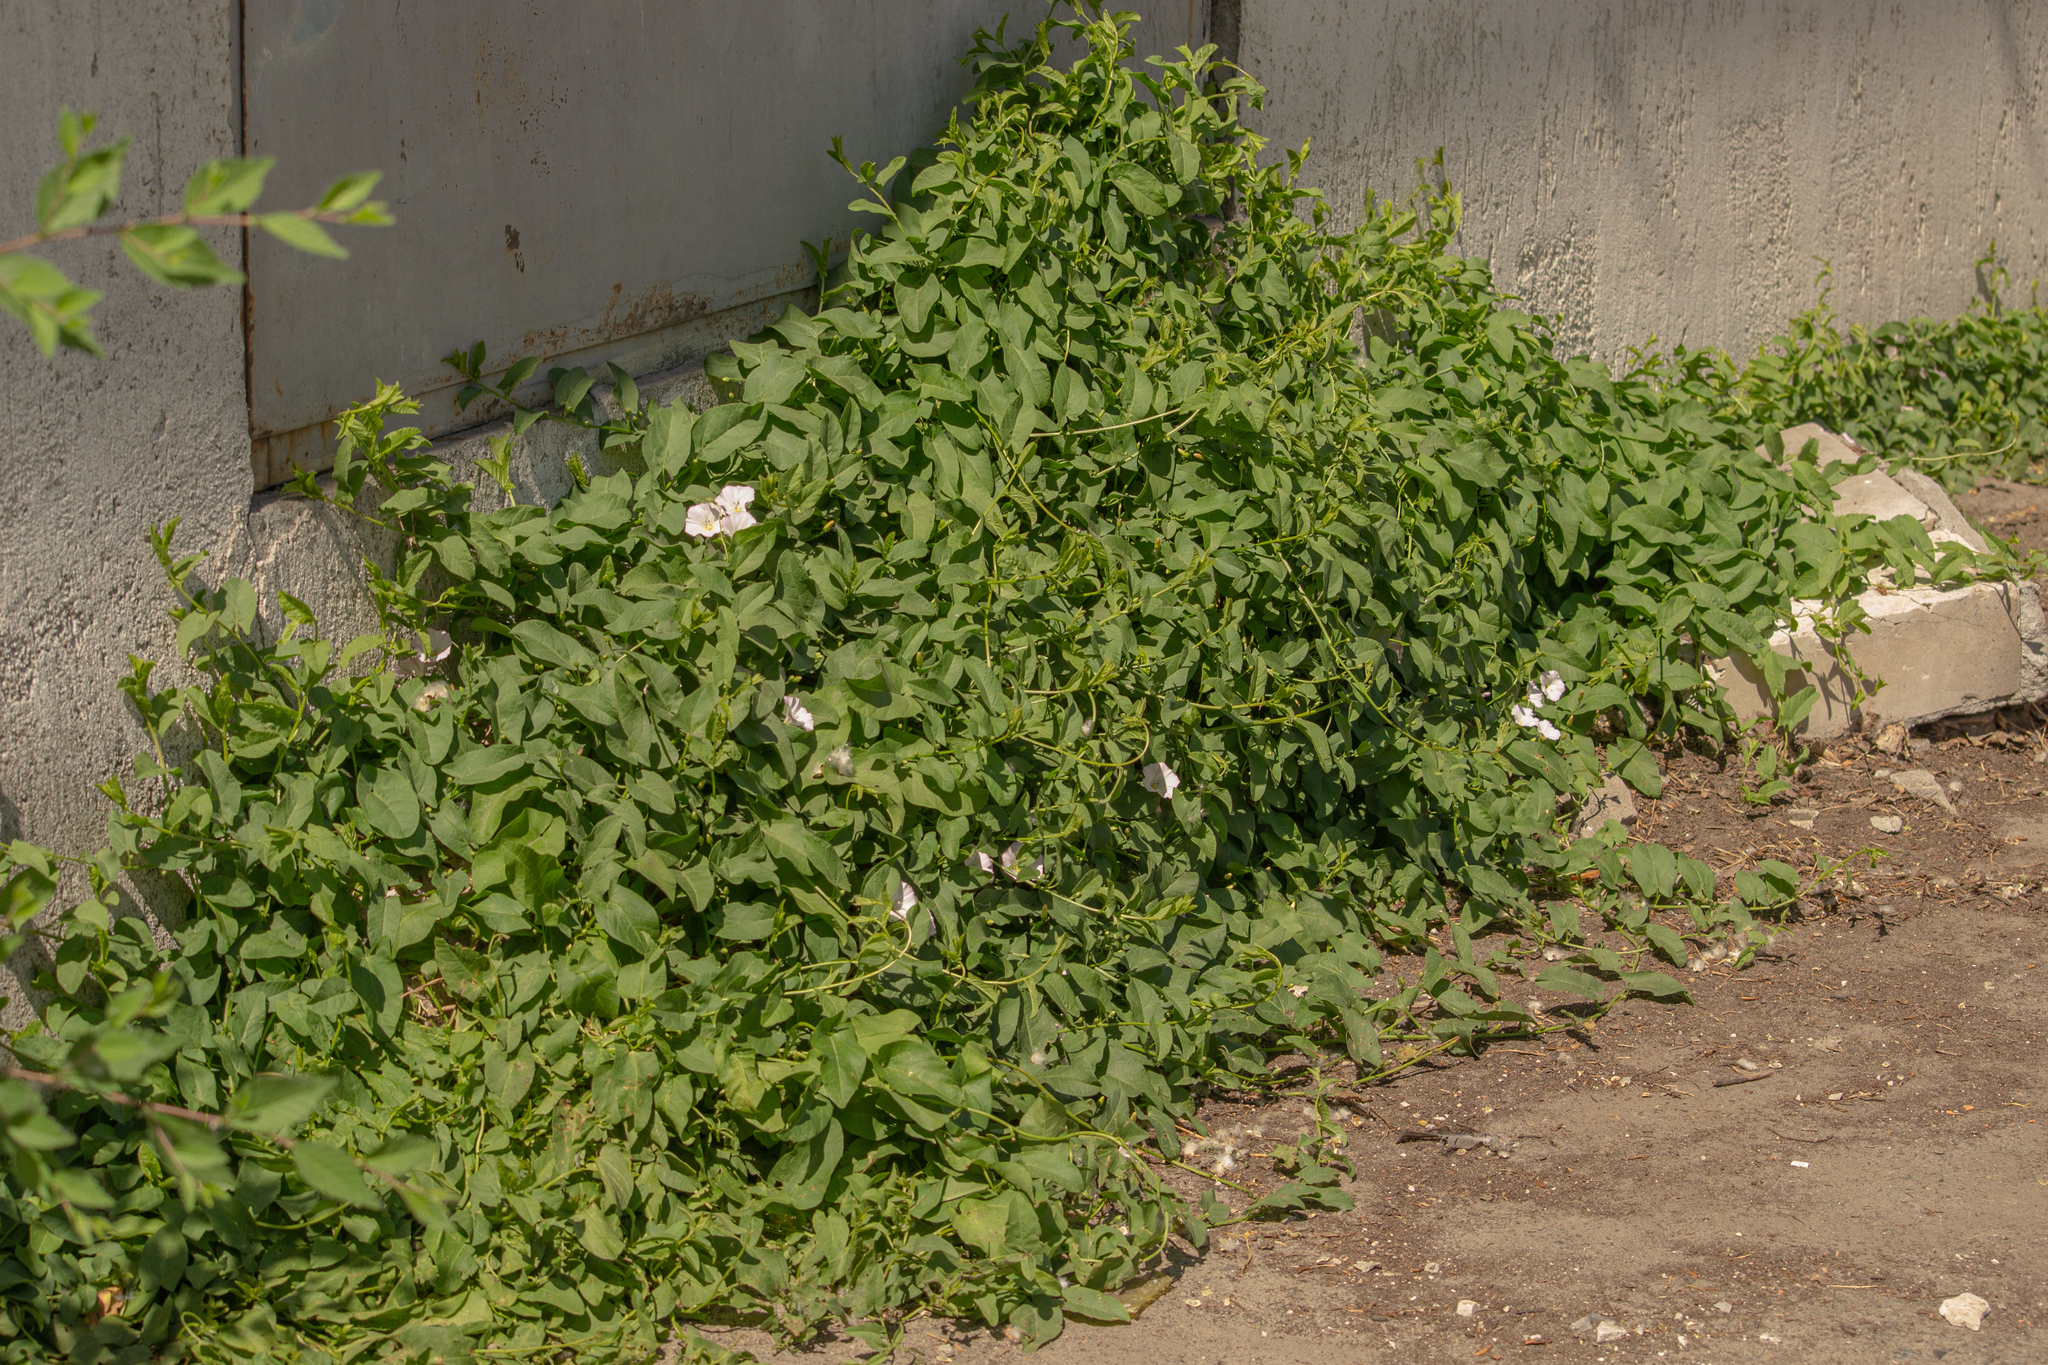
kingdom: Plantae
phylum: Tracheophyta
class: Magnoliopsida
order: Solanales
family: Convolvulaceae
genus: Convolvulus
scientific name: Convolvulus arvensis
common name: Field bindweed
